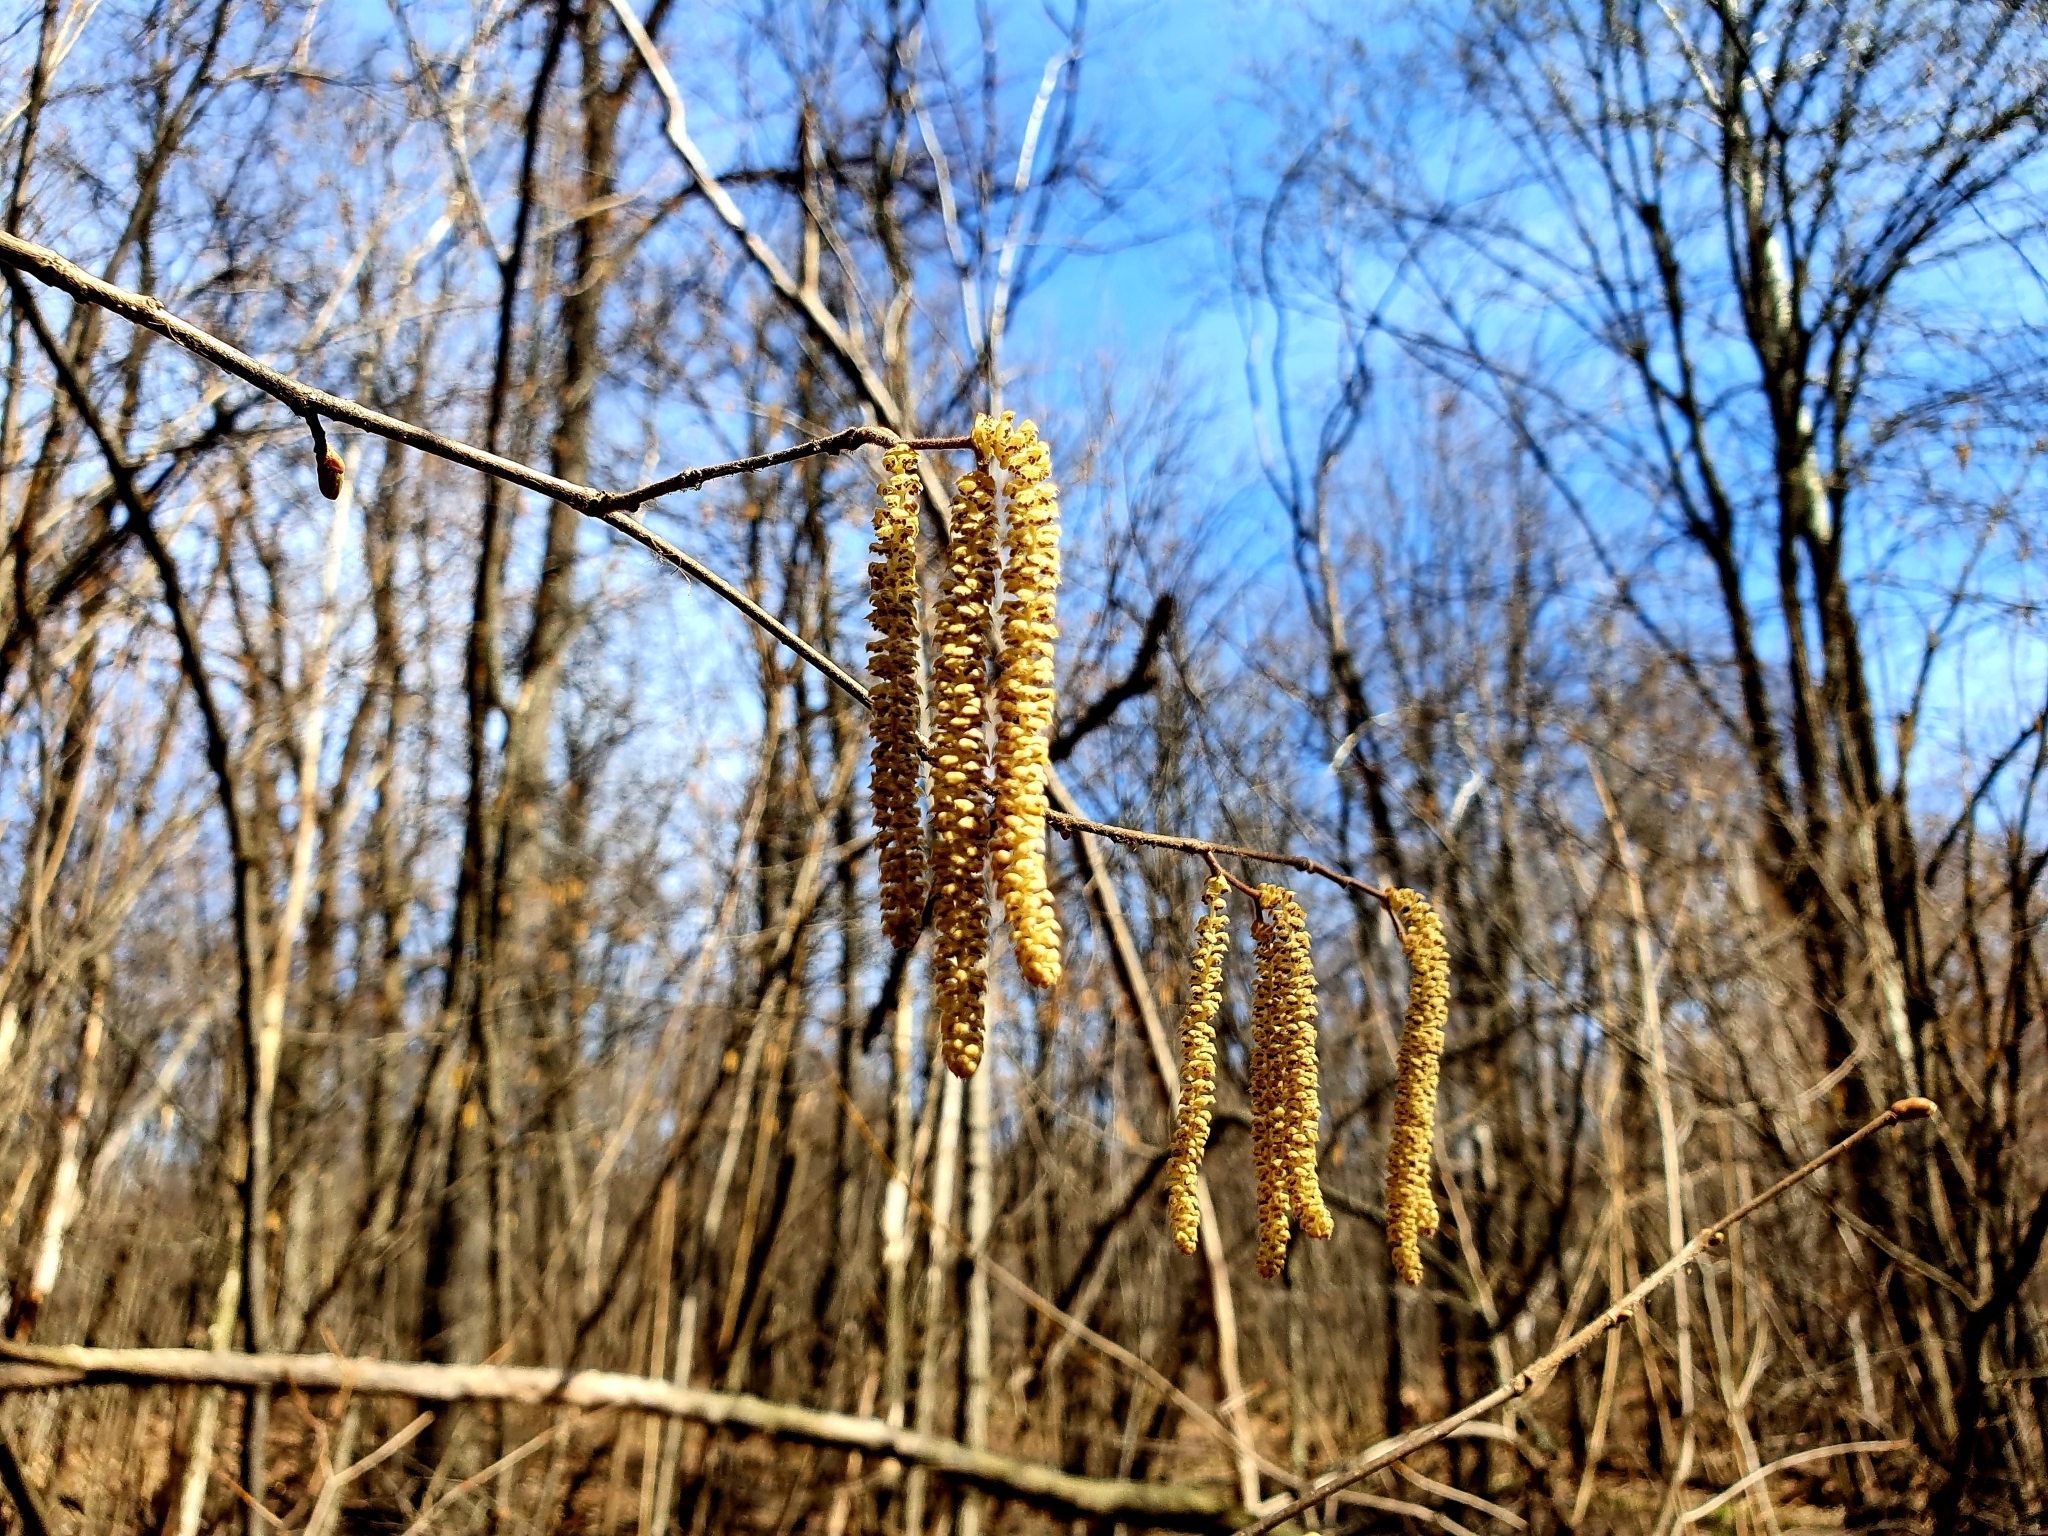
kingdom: Plantae
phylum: Tracheophyta
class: Magnoliopsida
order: Fagales
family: Betulaceae
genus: Corylus
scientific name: Corylus avellana
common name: European hazel
